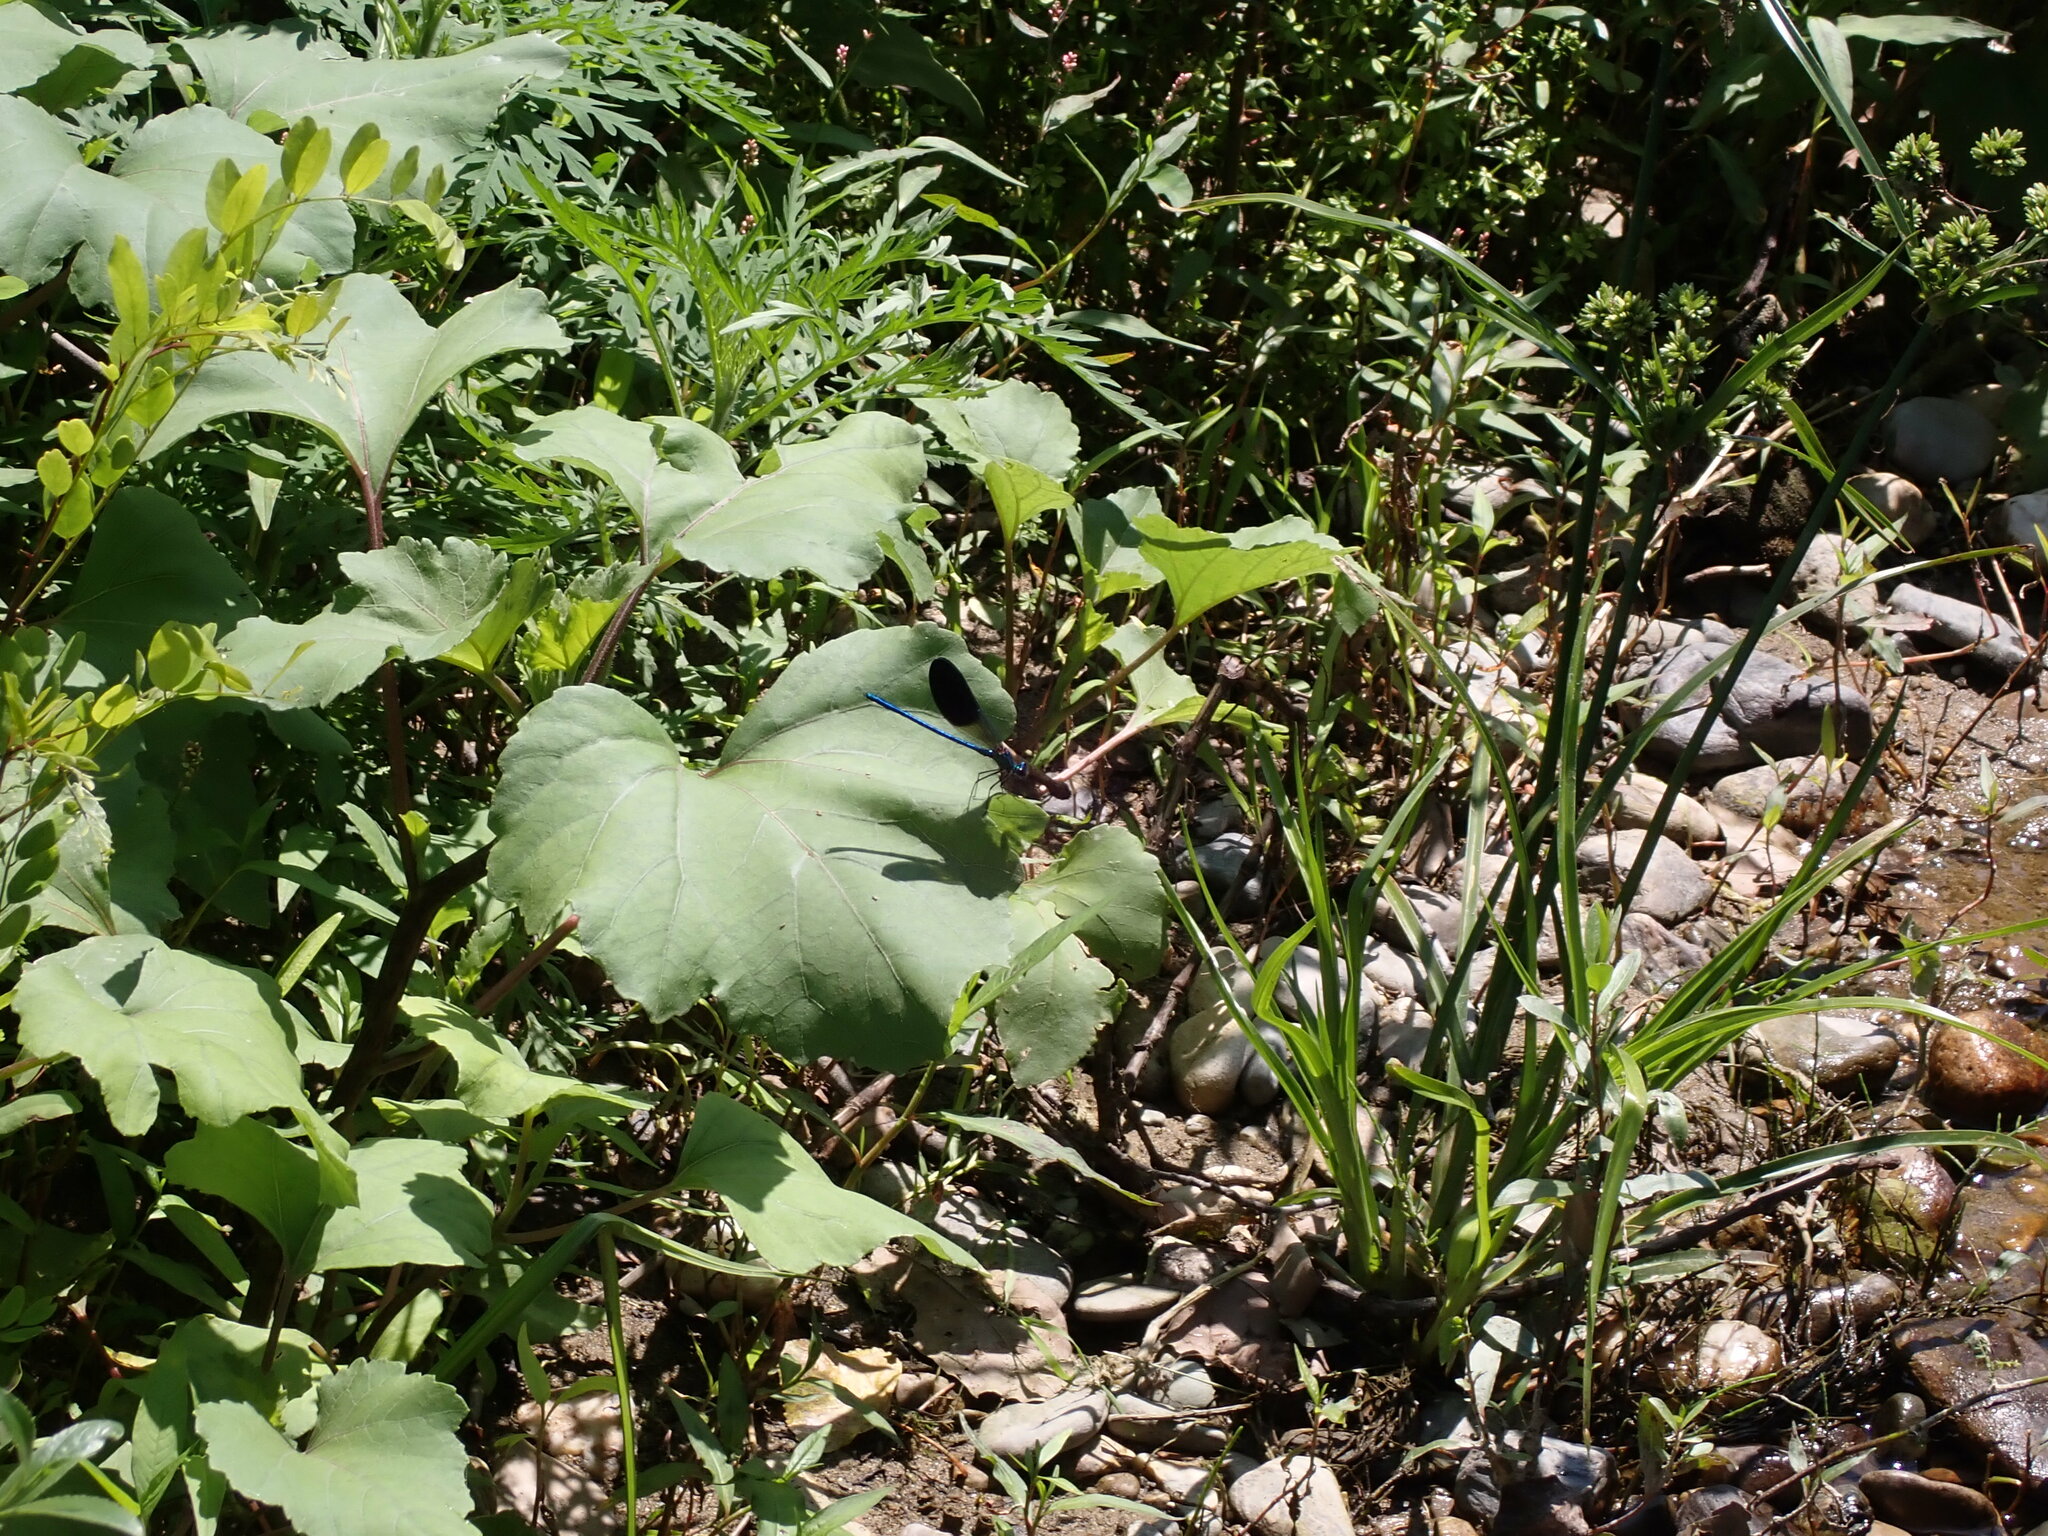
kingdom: Animalia
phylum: Arthropoda
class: Insecta
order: Odonata
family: Calopterygidae
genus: Calopteryx
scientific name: Calopteryx xanthostoma
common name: Western demoiselle
